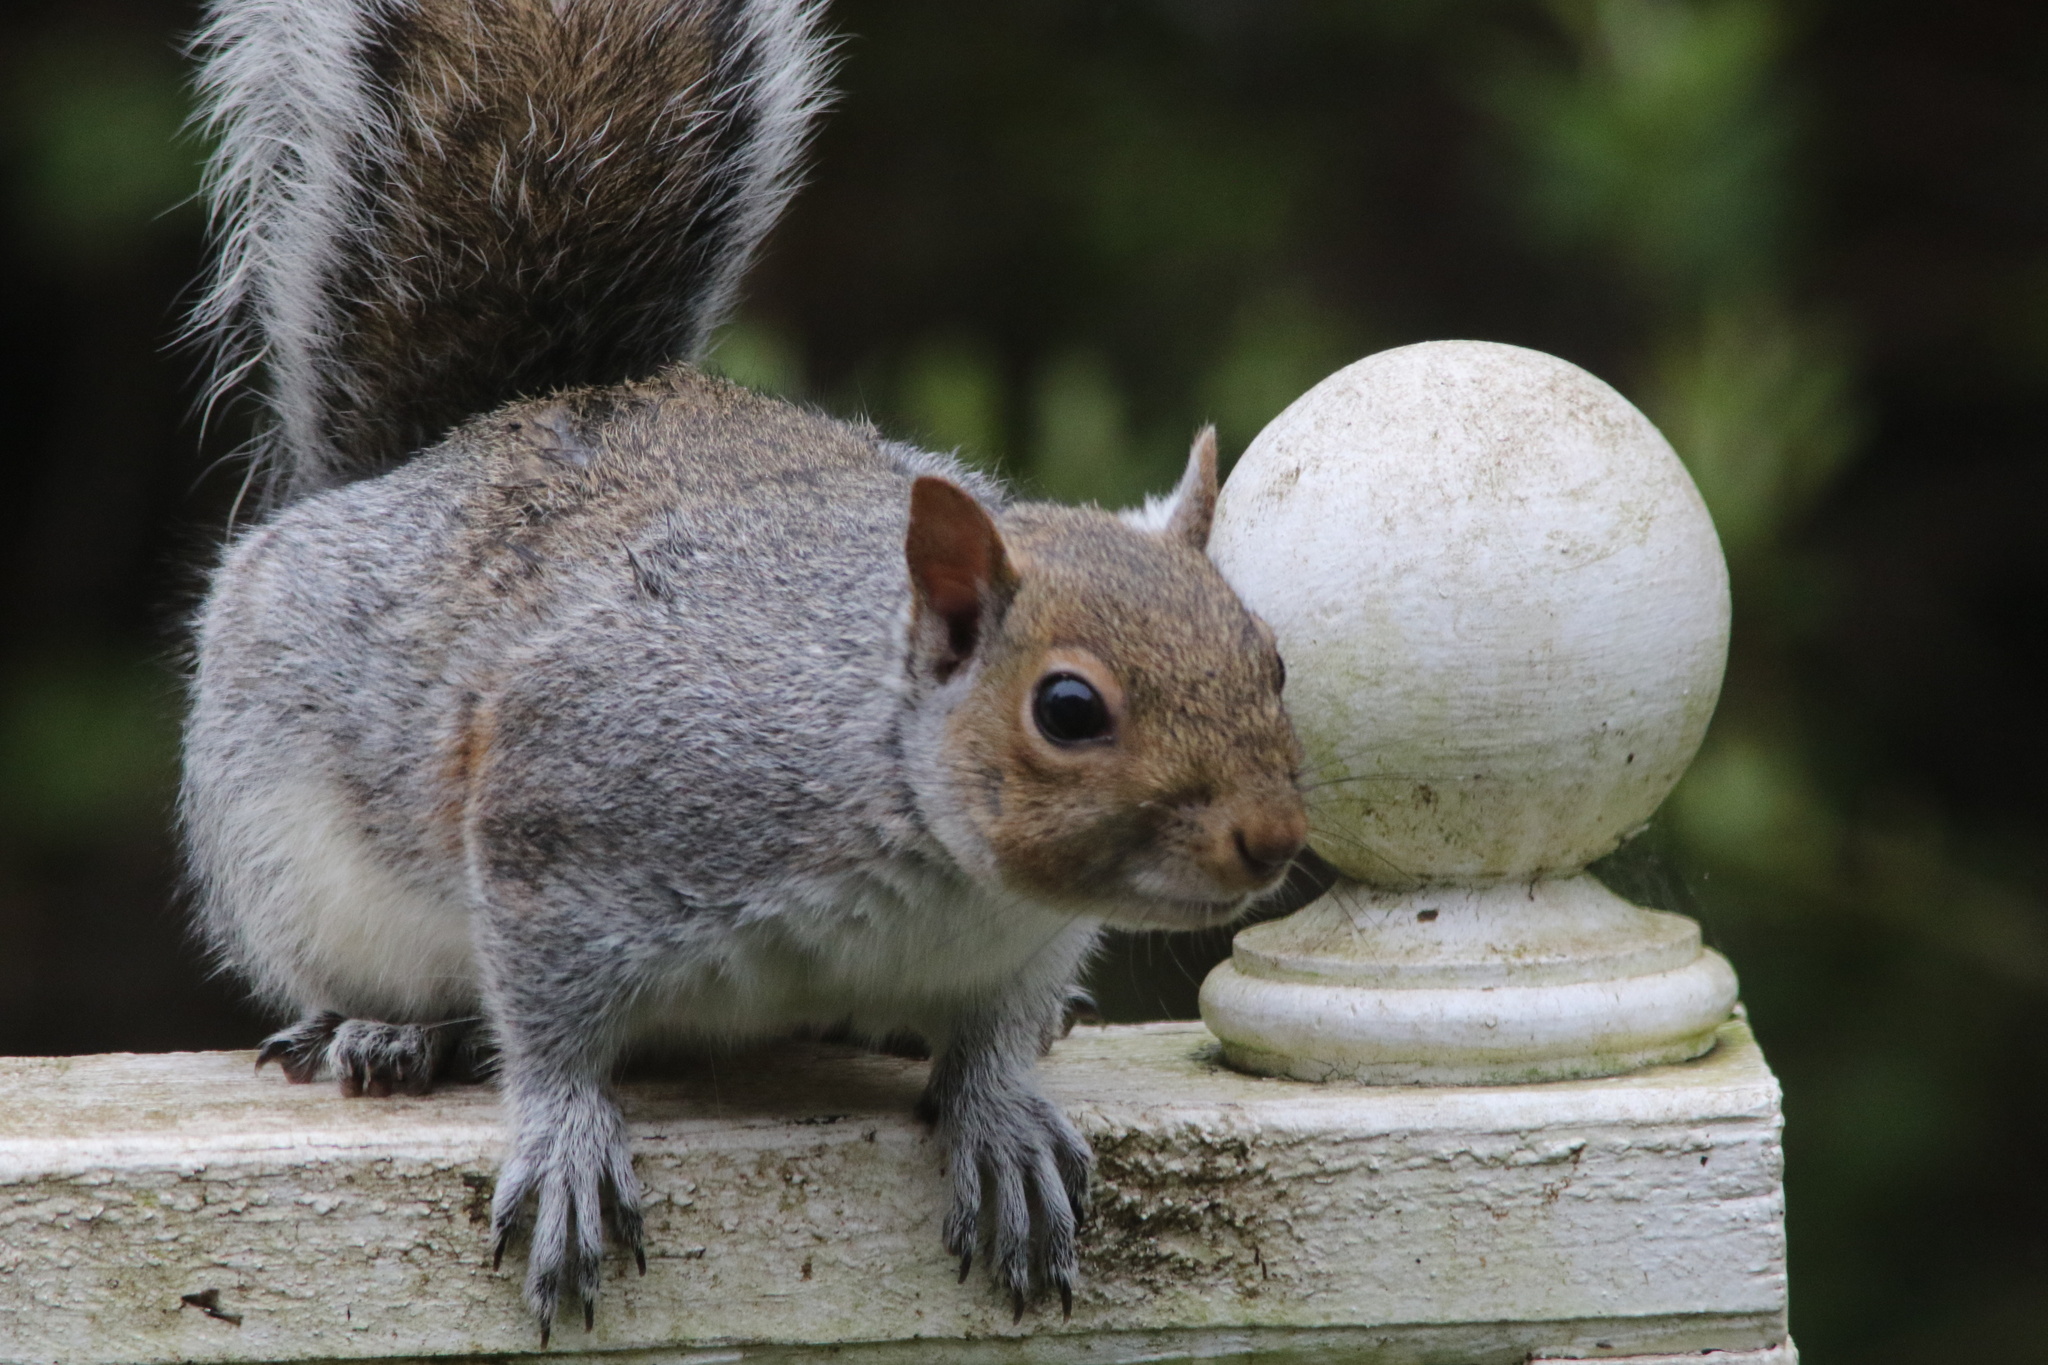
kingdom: Animalia
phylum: Chordata
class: Mammalia
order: Rodentia
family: Sciuridae
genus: Sciurus
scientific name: Sciurus carolinensis
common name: Eastern gray squirrel
